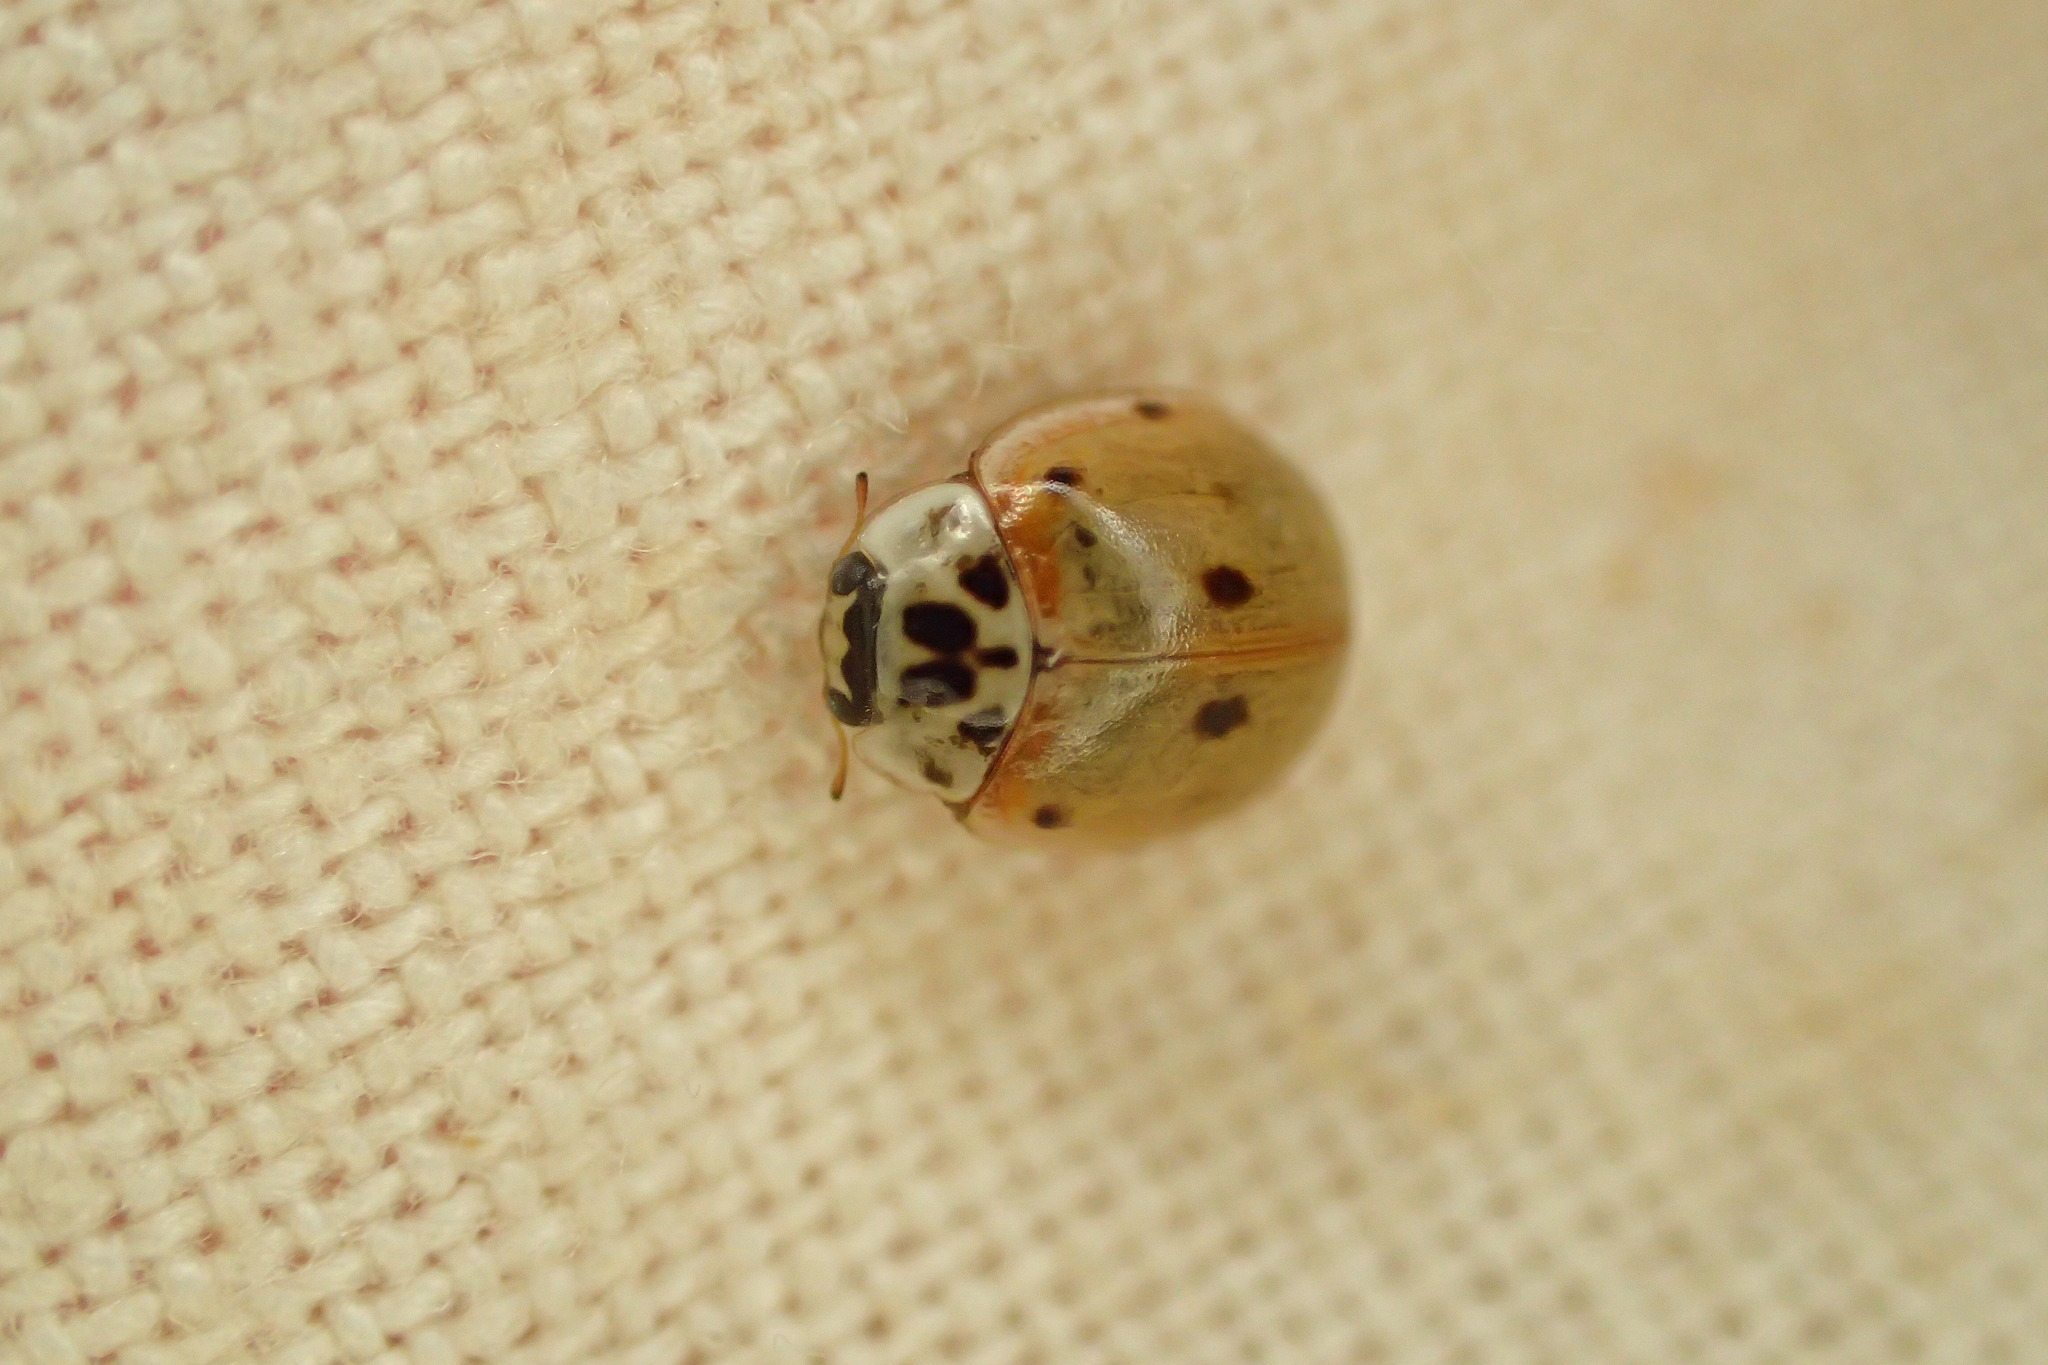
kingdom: Animalia
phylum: Arthropoda
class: Insecta
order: Coleoptera
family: Coccinellidae
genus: Adalia
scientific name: Adalia decempunctata
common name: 10-spot ladybird
